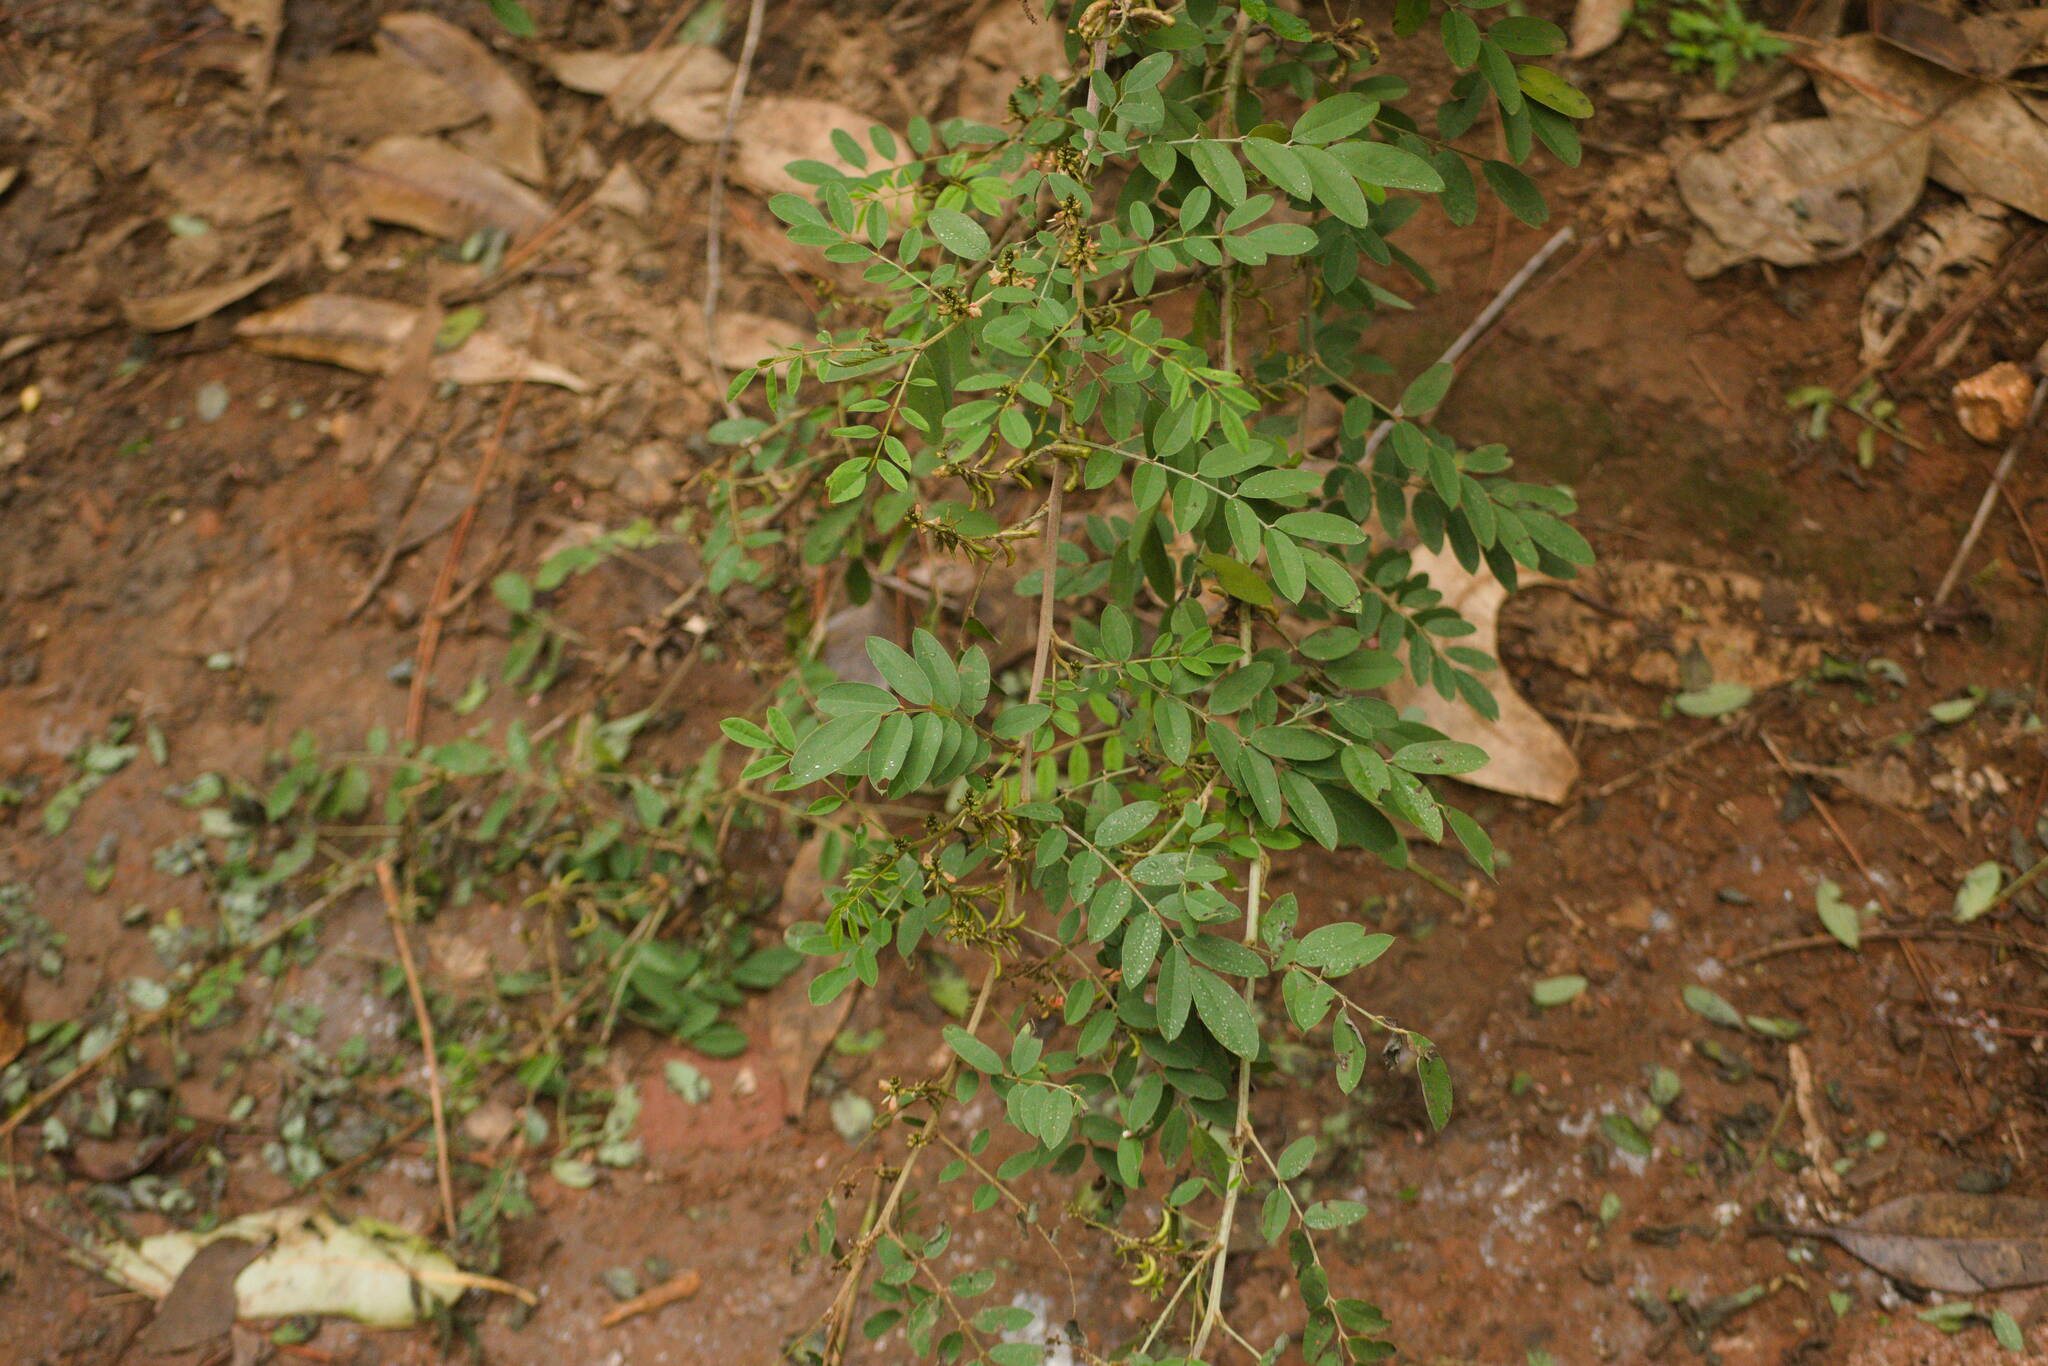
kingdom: Plantae
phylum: Tracheophyta
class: Magnoliopsida
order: Fabales
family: Fabaceae
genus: Indigofera
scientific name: Indigofera suffruticosa
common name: Anil de pasto
